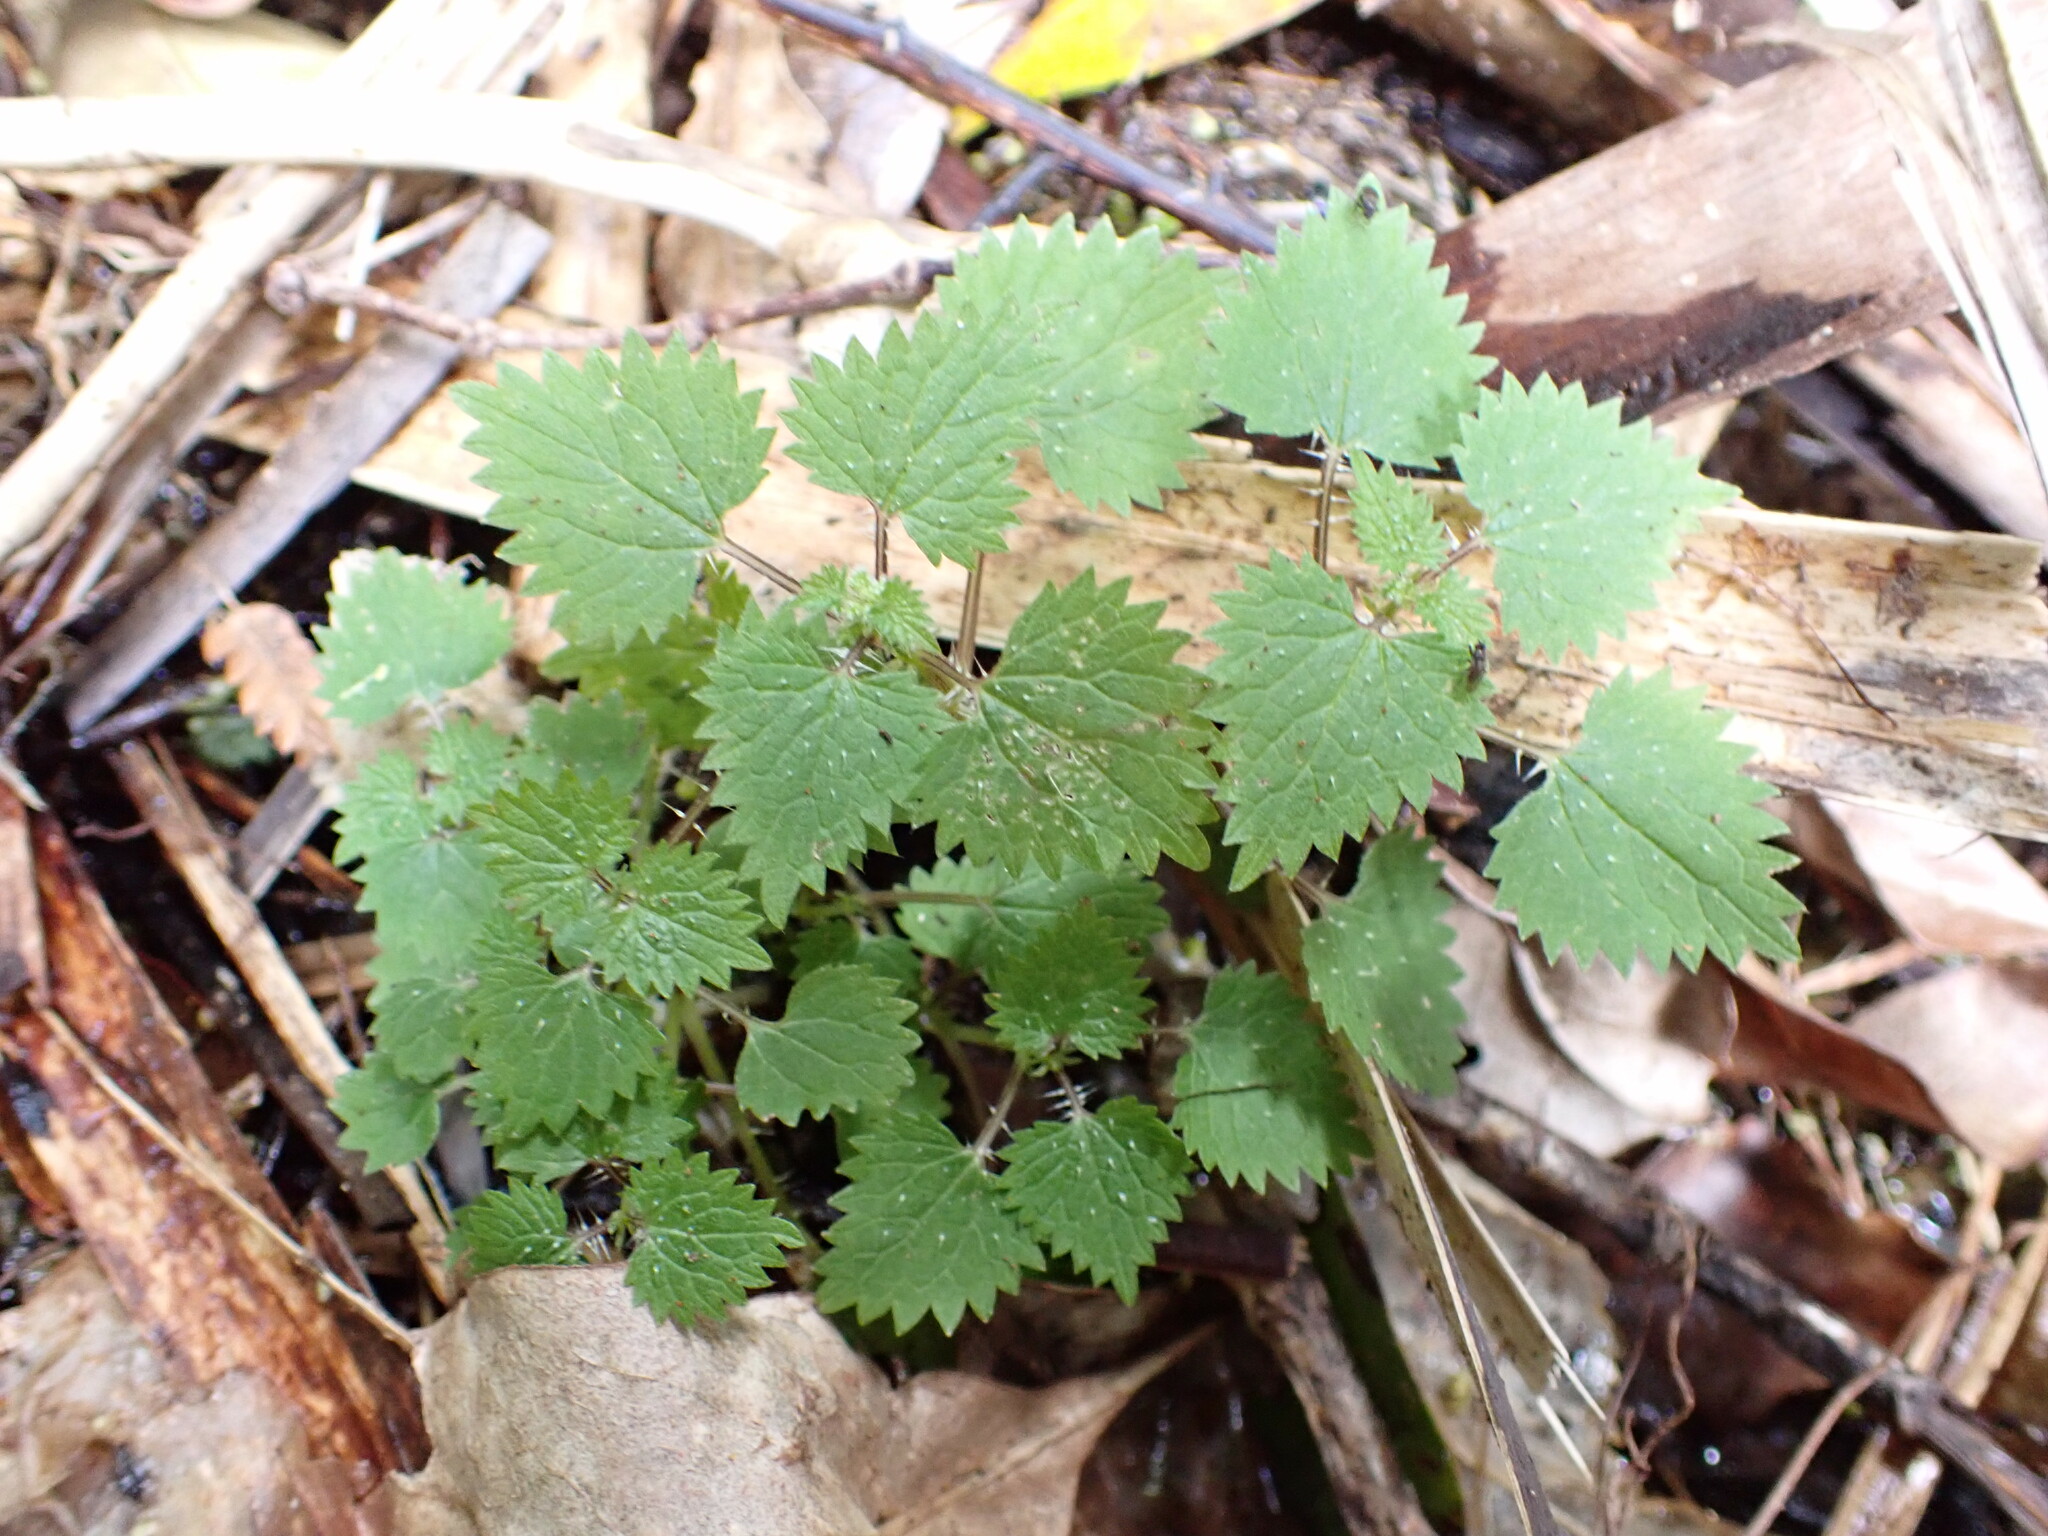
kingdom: Plantae
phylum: Tracheophyta
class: Magnoliopsida
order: Rosales
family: Urticaceae
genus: Urtica
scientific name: Urtica sykesii
